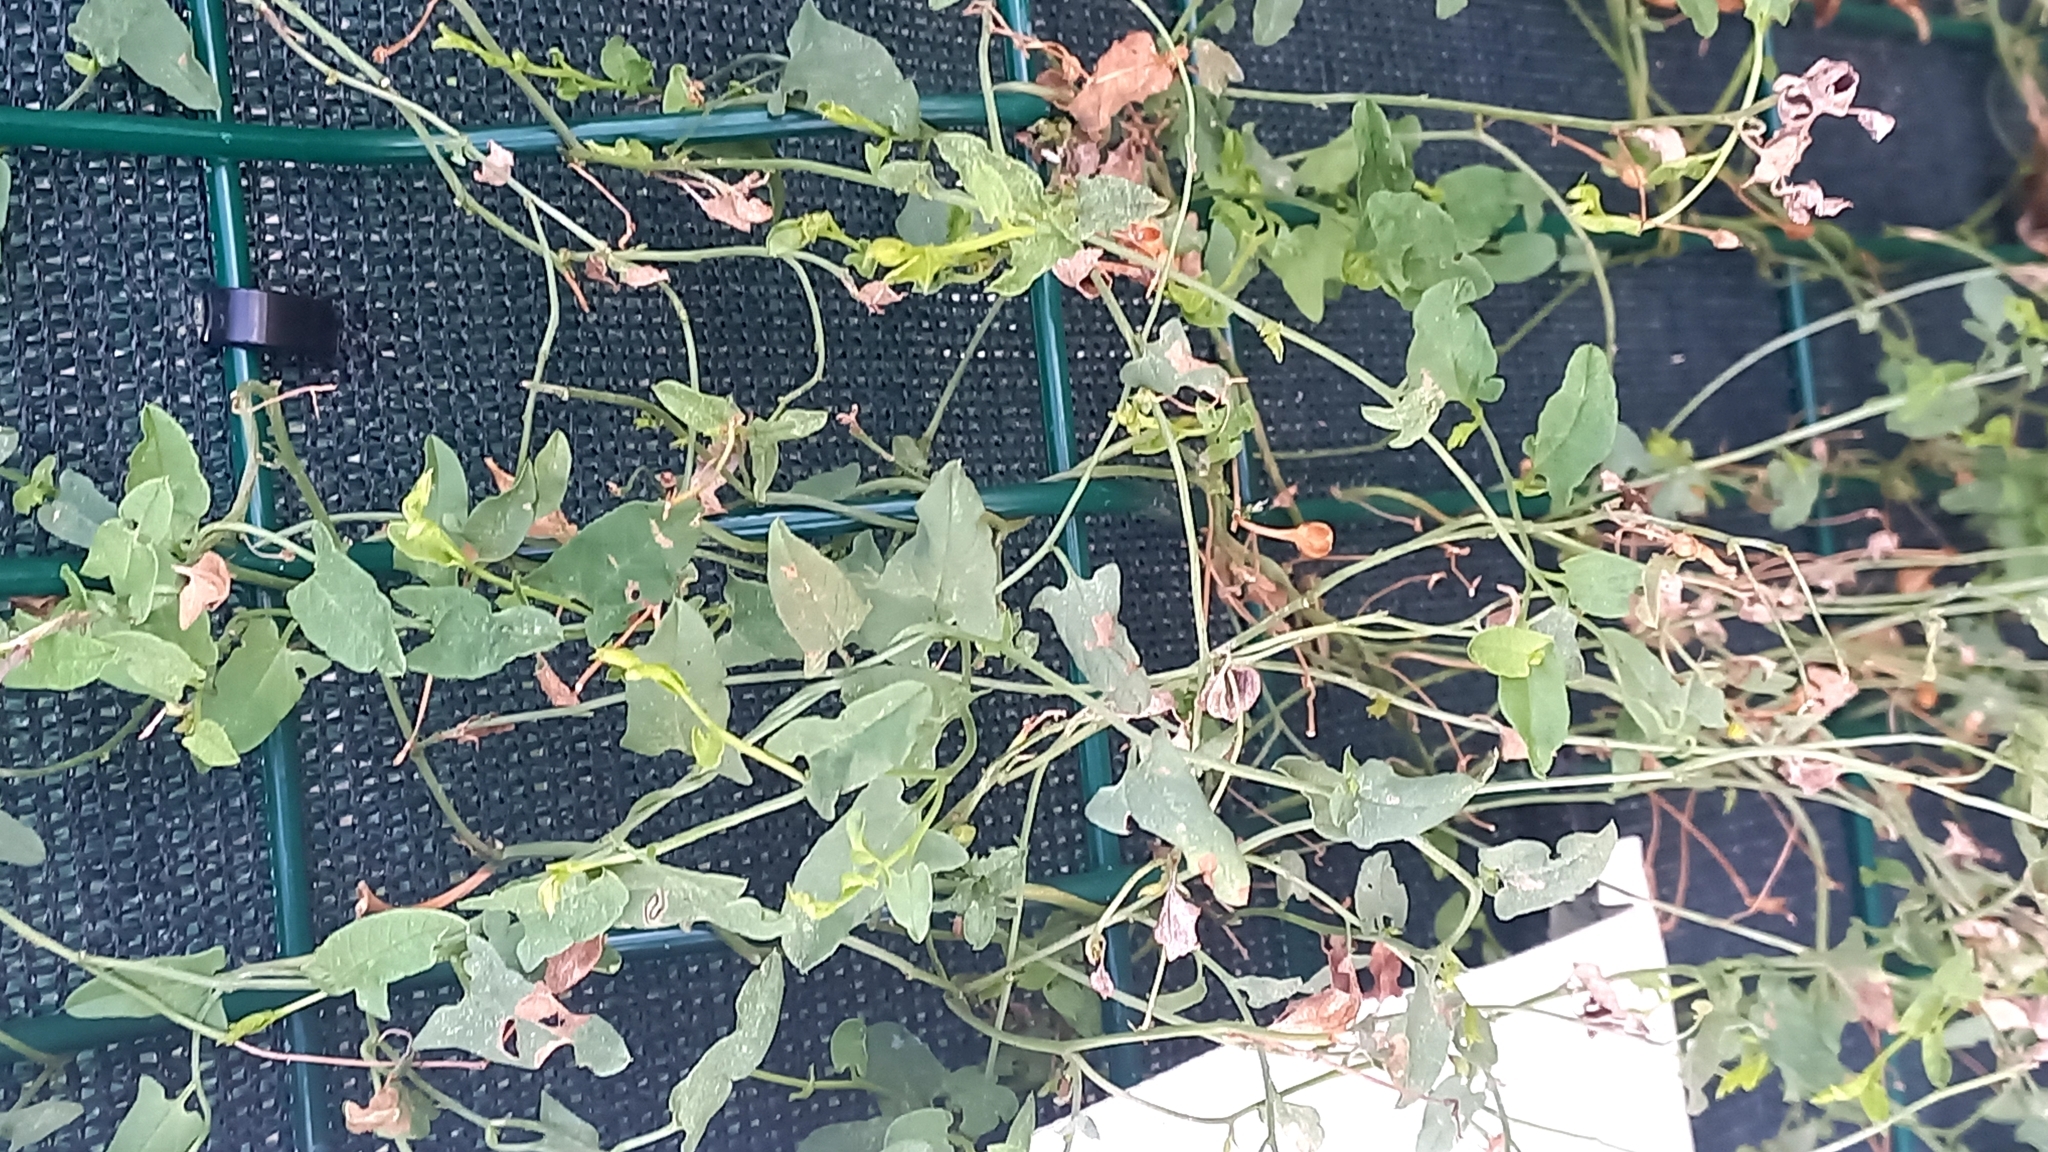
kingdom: Plantae
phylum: Tracheophyta
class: Magnoliopsida
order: Solanales
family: Convolvulaceae
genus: Convolvulus
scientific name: Convolvulus arvensis
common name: Field bindweed
